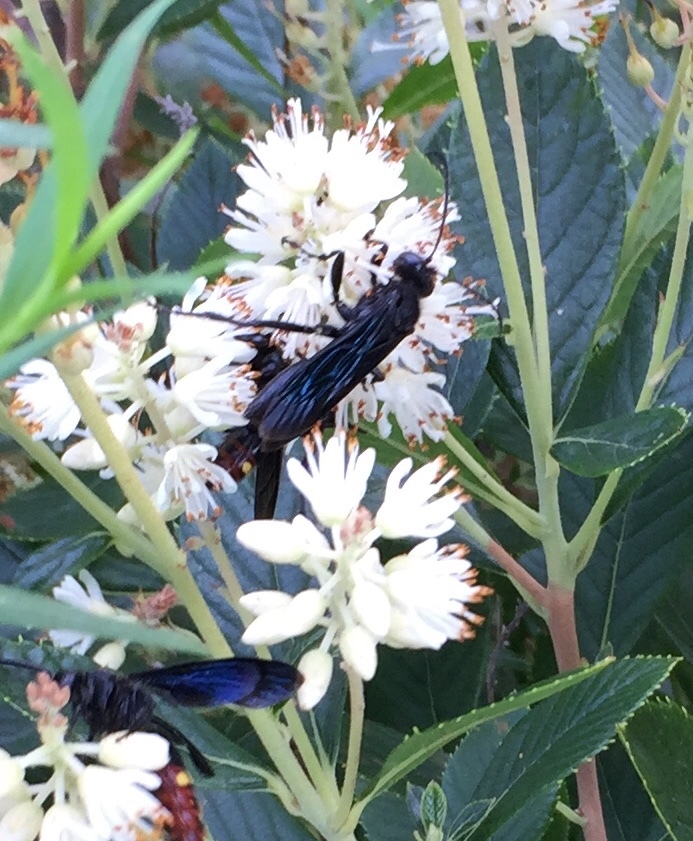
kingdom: Animalia
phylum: Arthropoda
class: Insecta
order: Hymenoptera
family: Sphecidae
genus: Sphex
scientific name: Sphex pensylvanicus
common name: Great black digger wasp
